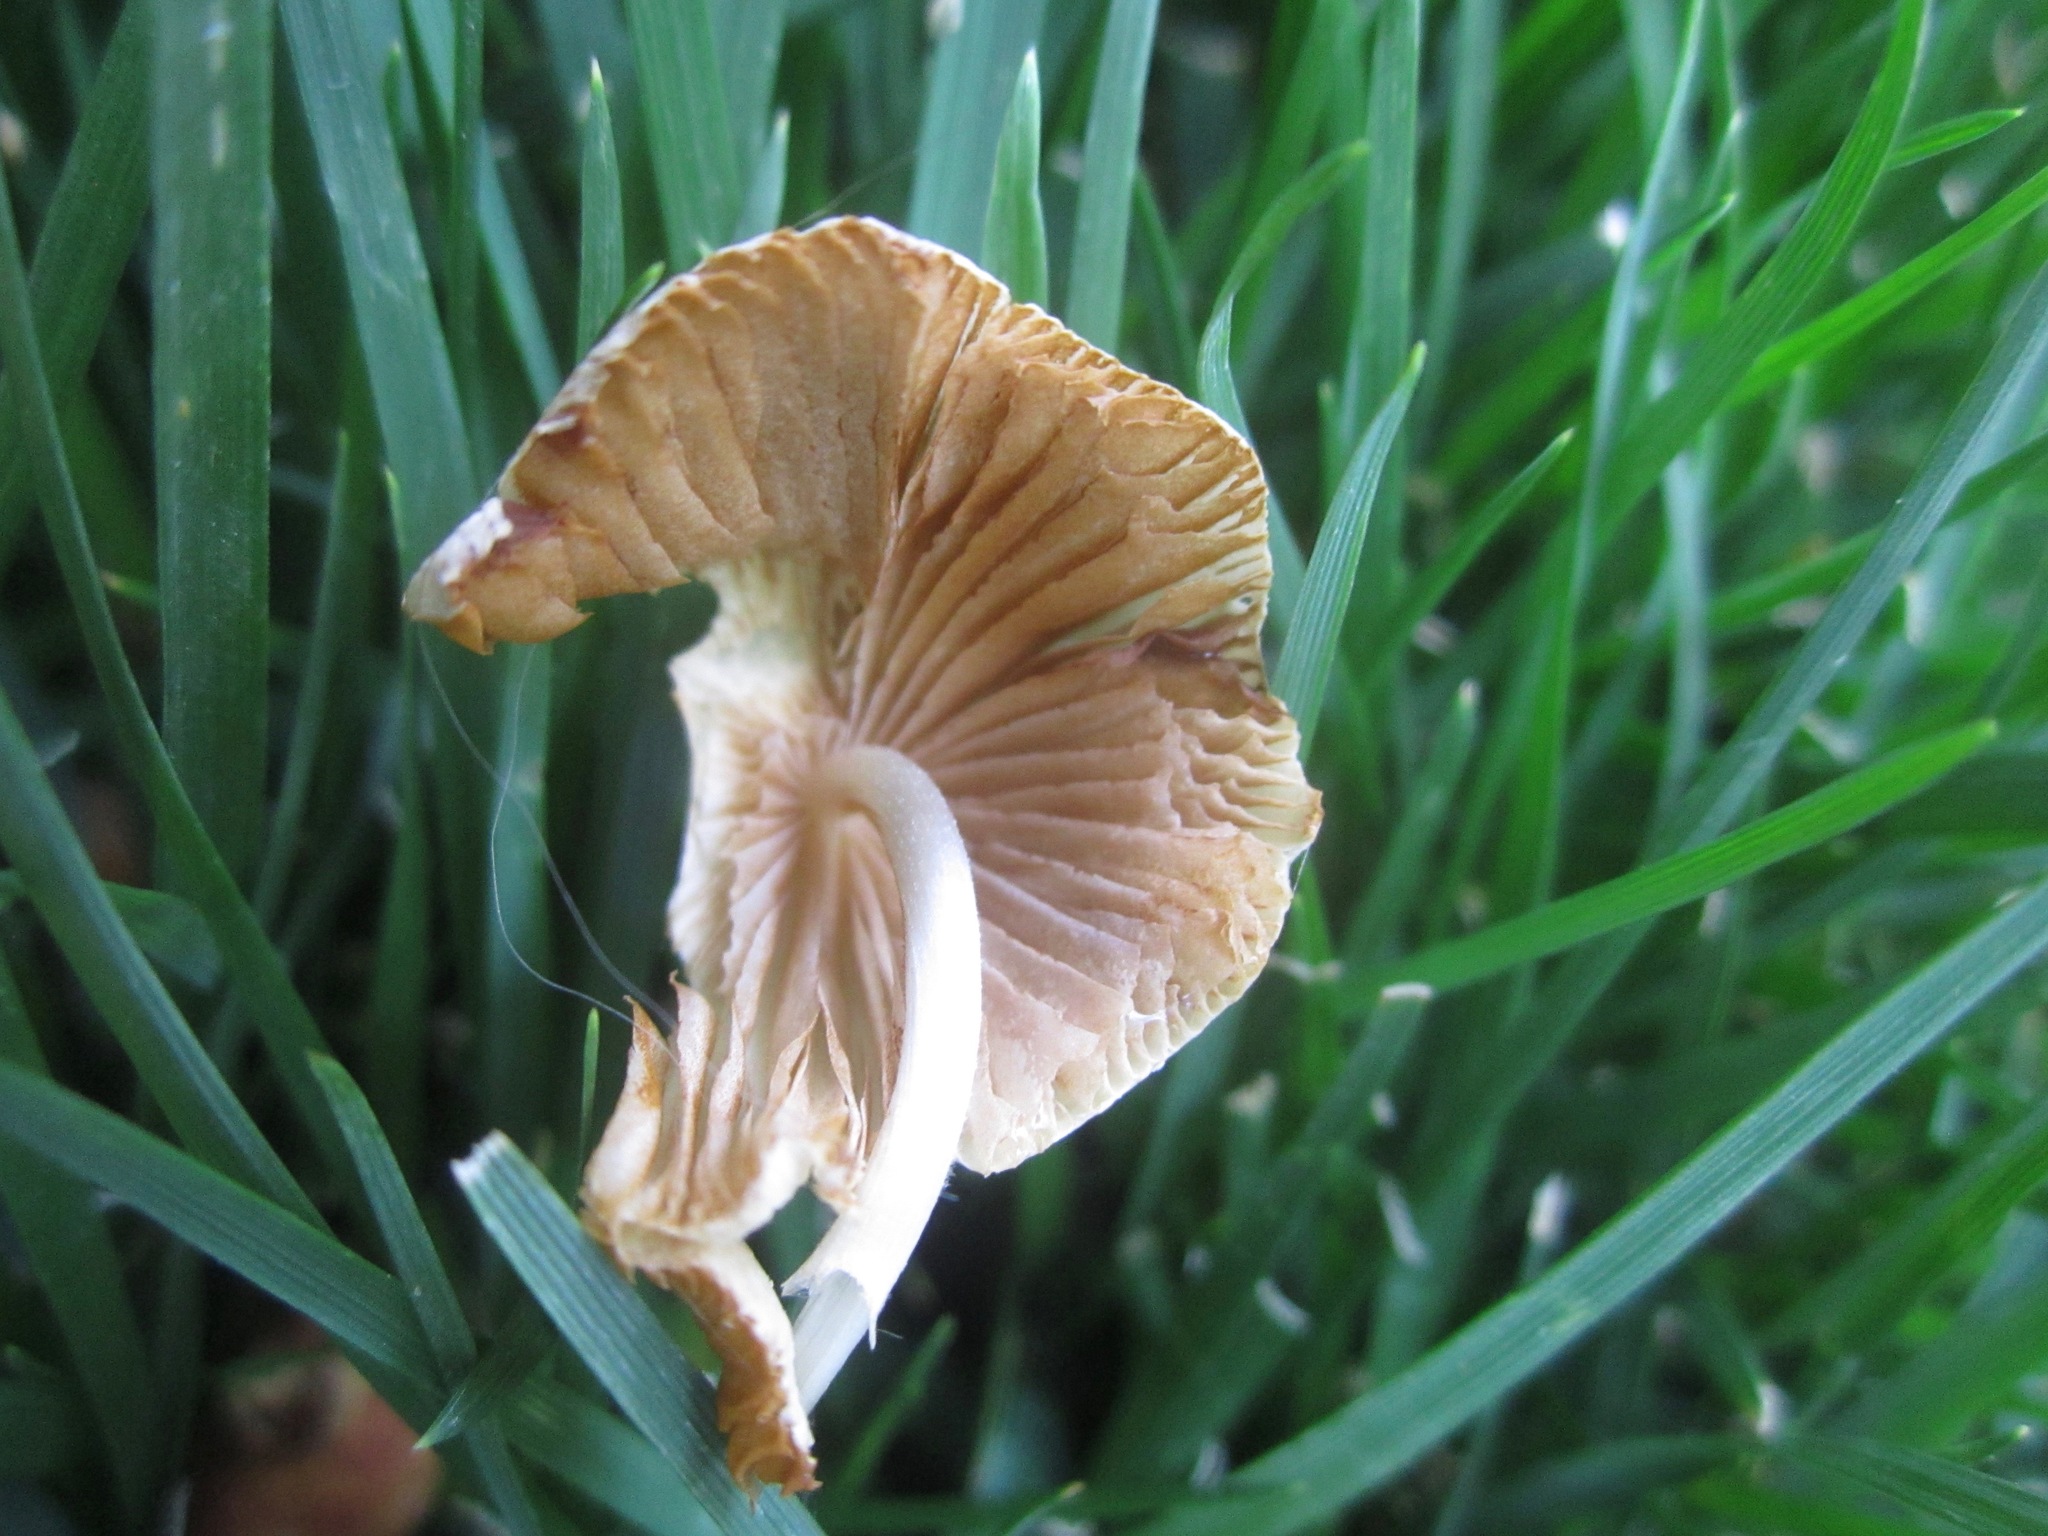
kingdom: Fungi
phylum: Basidiomycota
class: Agaricomycetes
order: Agaricales
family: Bolbitiaceae
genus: Conocybe
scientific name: Conocybe apala
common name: Milky conecap
